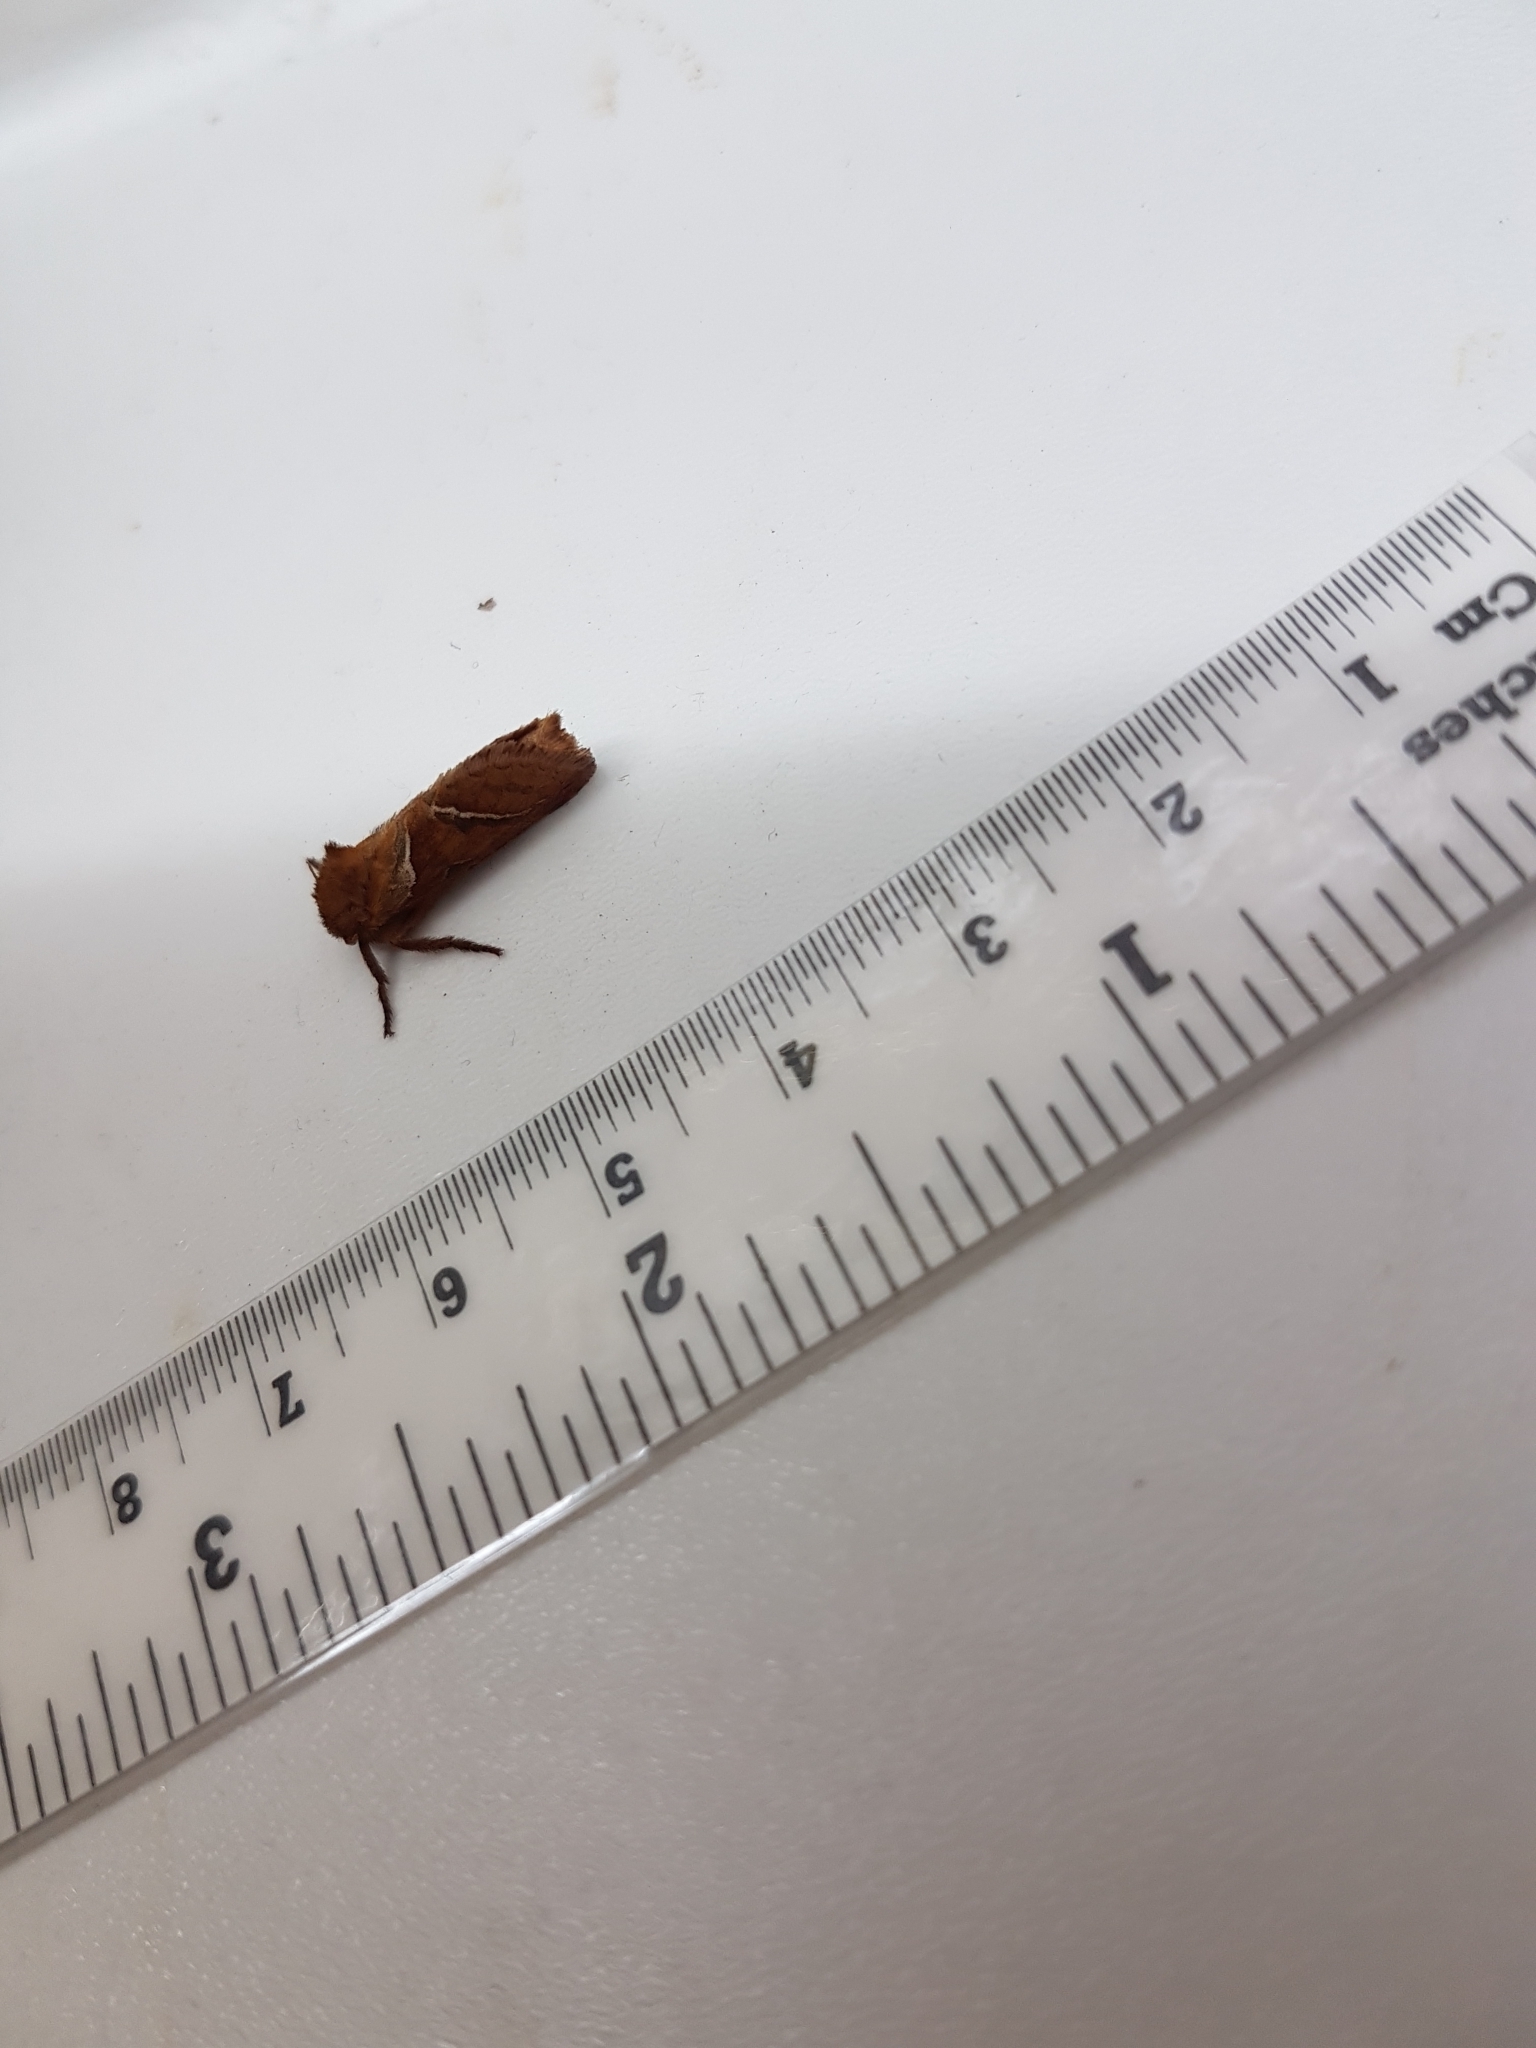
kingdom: Animalia
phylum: Arthropoda
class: Insecta
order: Lepidoptera
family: Hepialidae
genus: Triodia
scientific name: Triodia sylvina
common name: Orange swift
